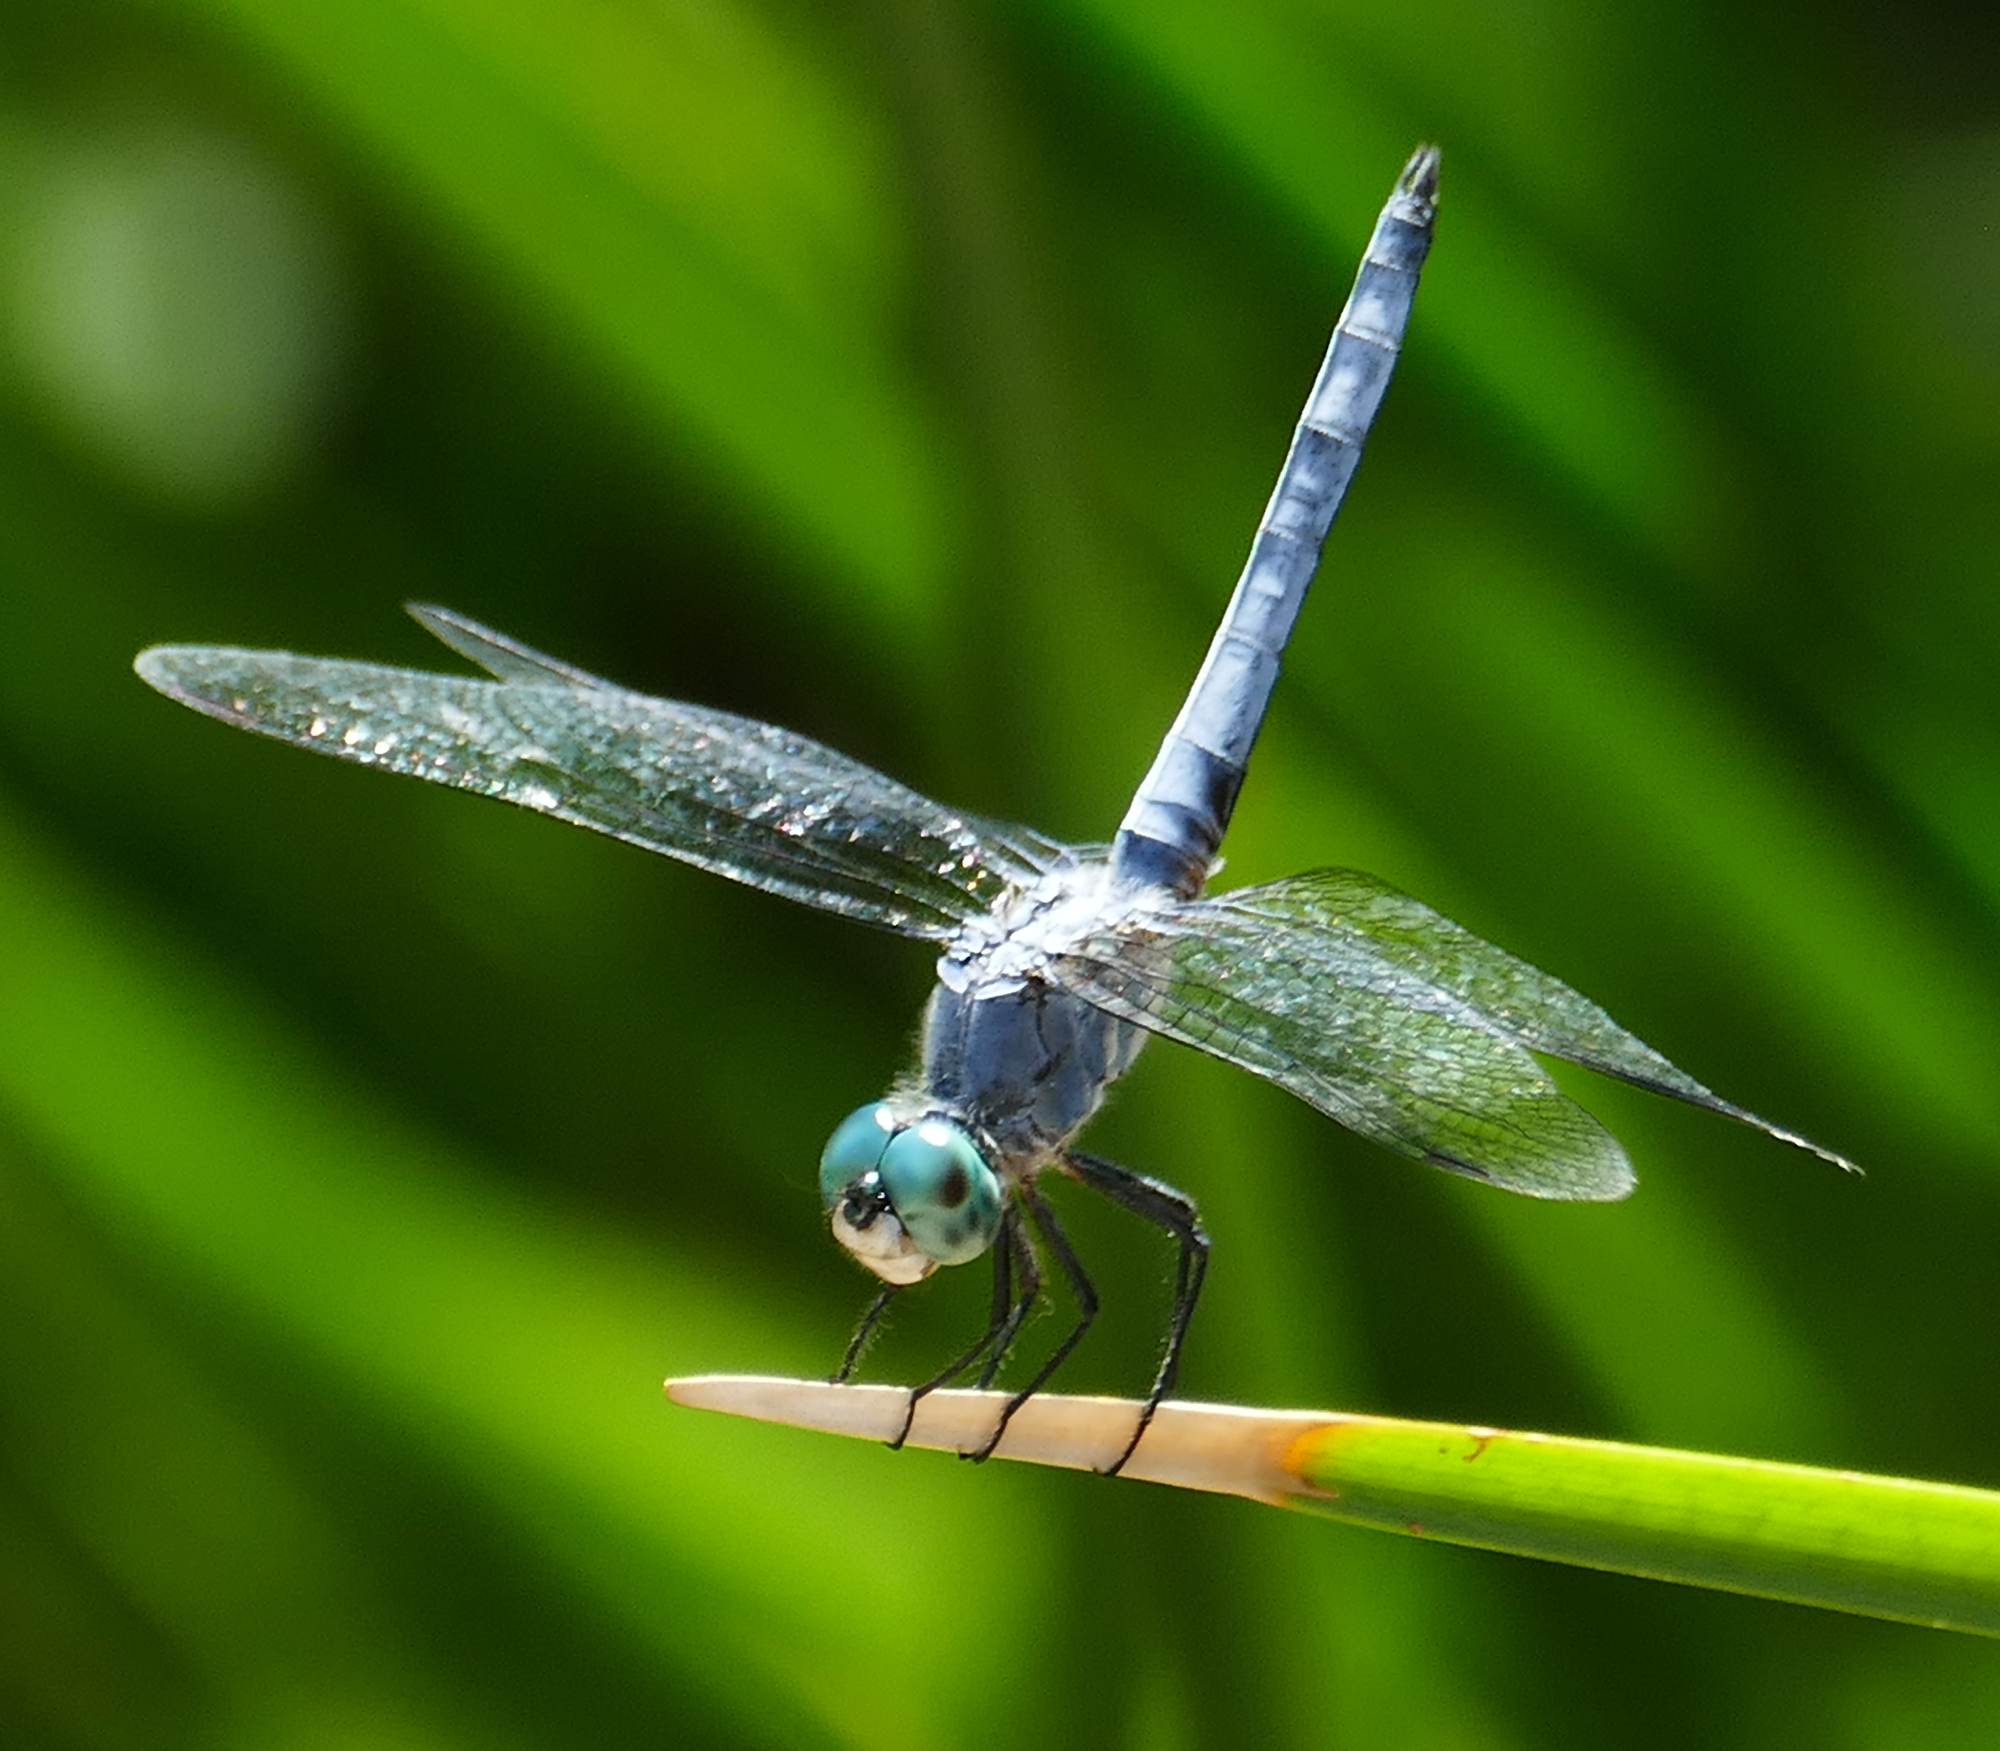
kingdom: Animalia
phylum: Arthropoda
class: Insecta
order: Odonata
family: Libellulidae
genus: Pachydiplax
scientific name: Pachydiplax longipennis
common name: Blue dasher
